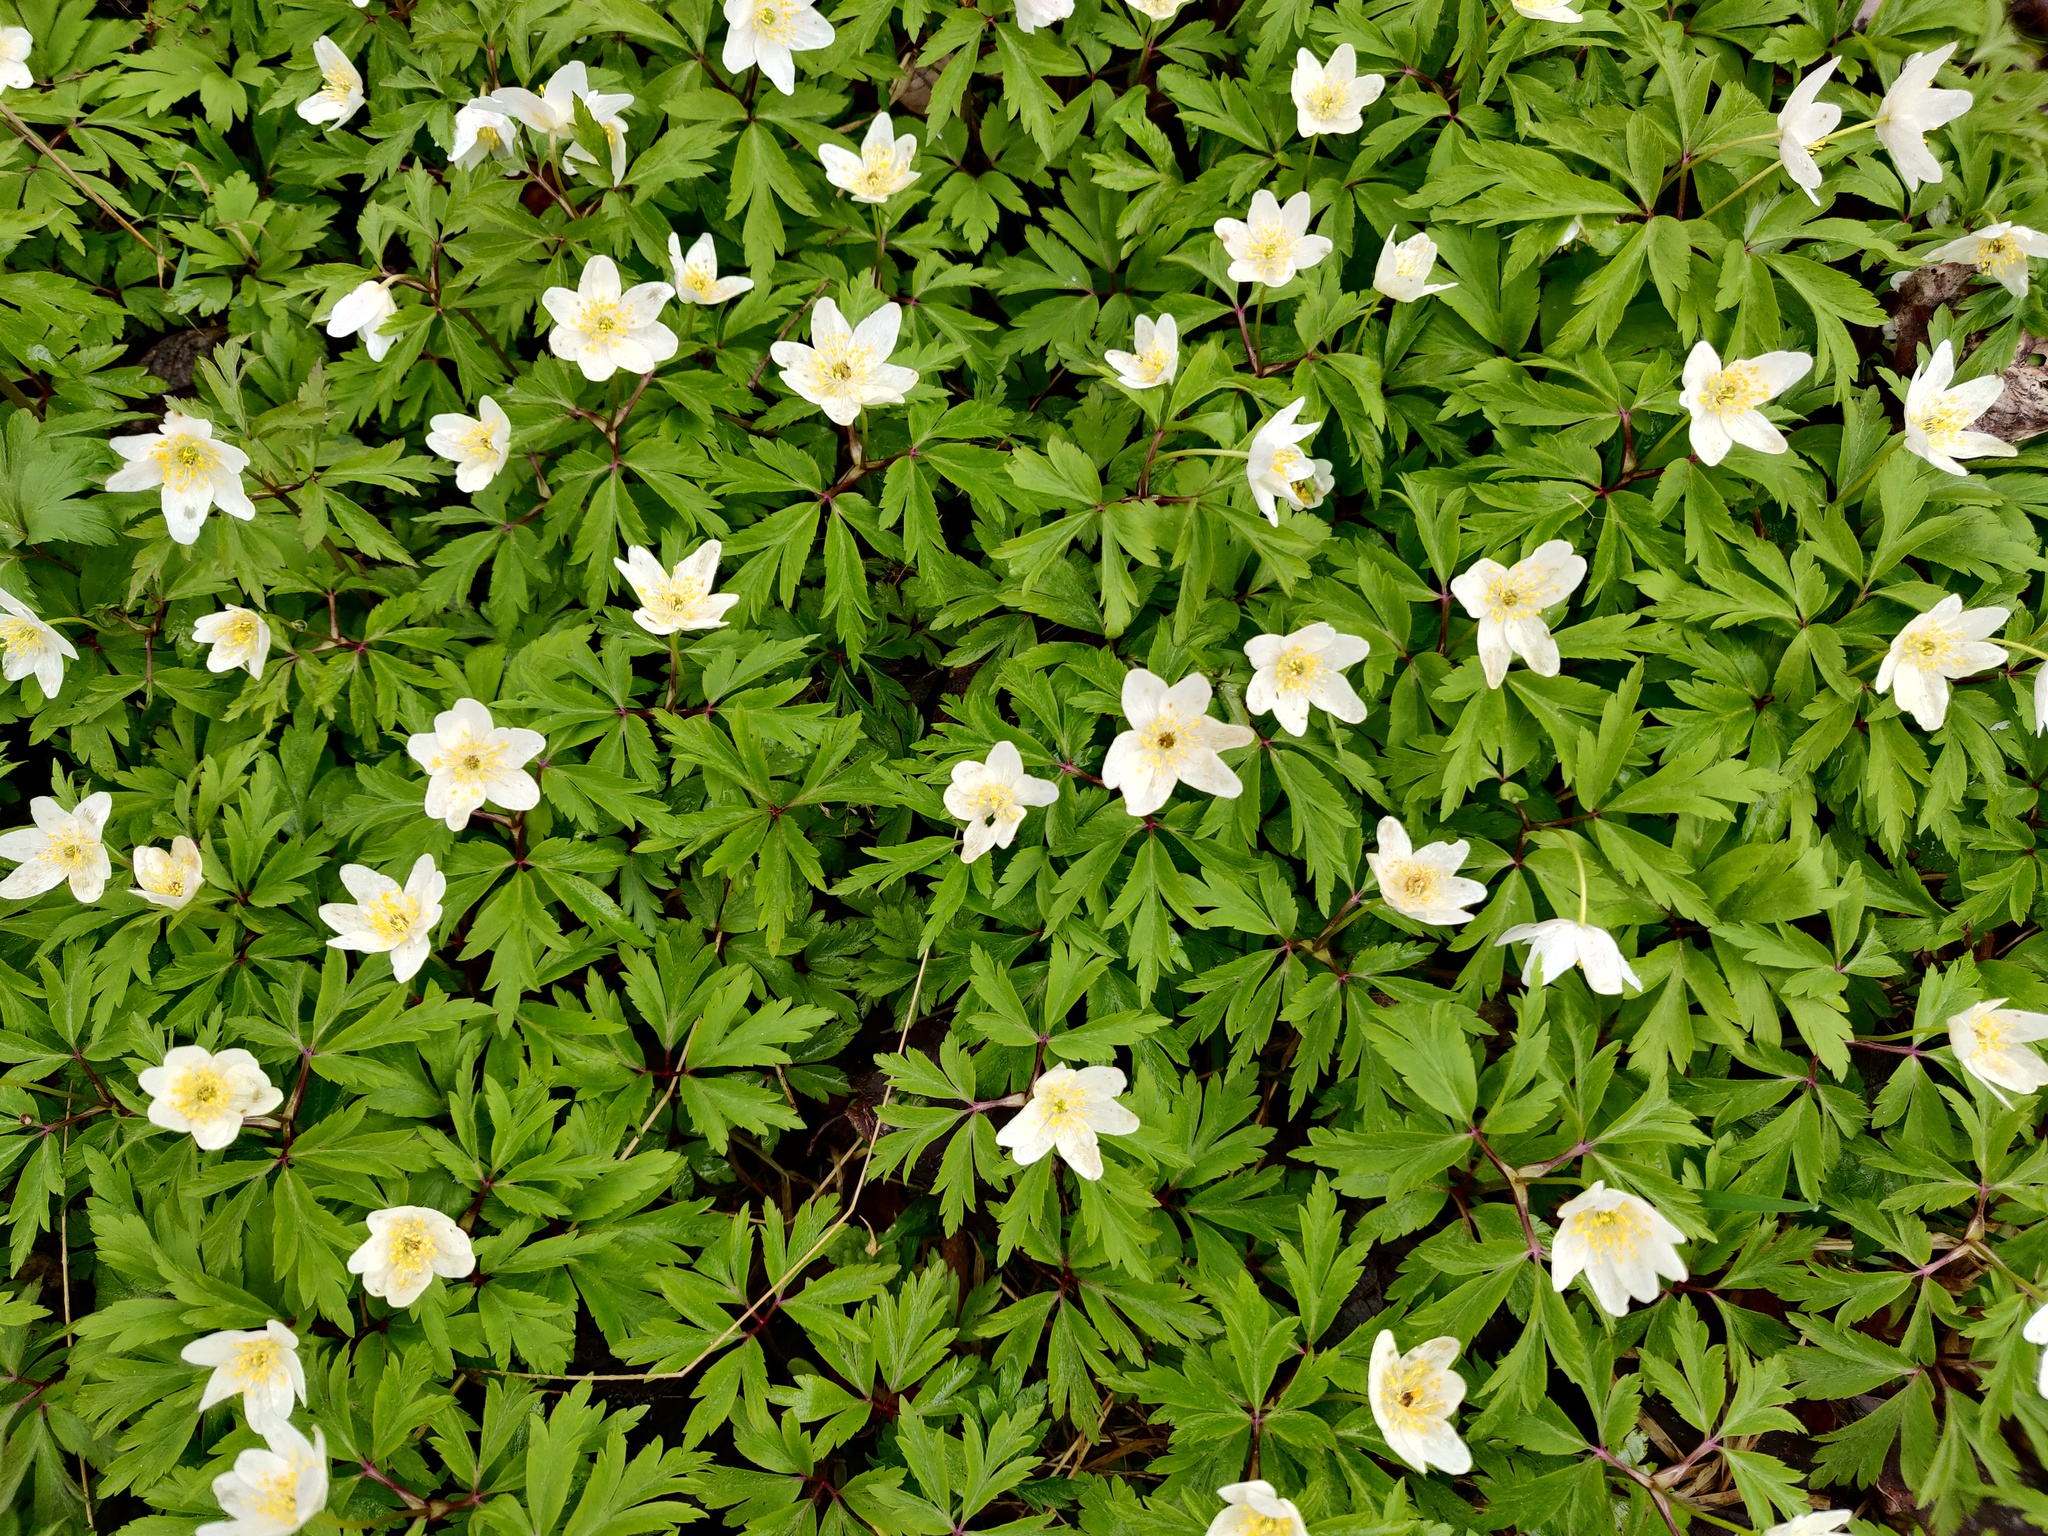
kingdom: Plantae
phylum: Tracheophyta
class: Magnoliopsida
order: Ranunculales
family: Ranunculaceae
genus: Anemone
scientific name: Anemone nemorosa
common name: Wood anemone
